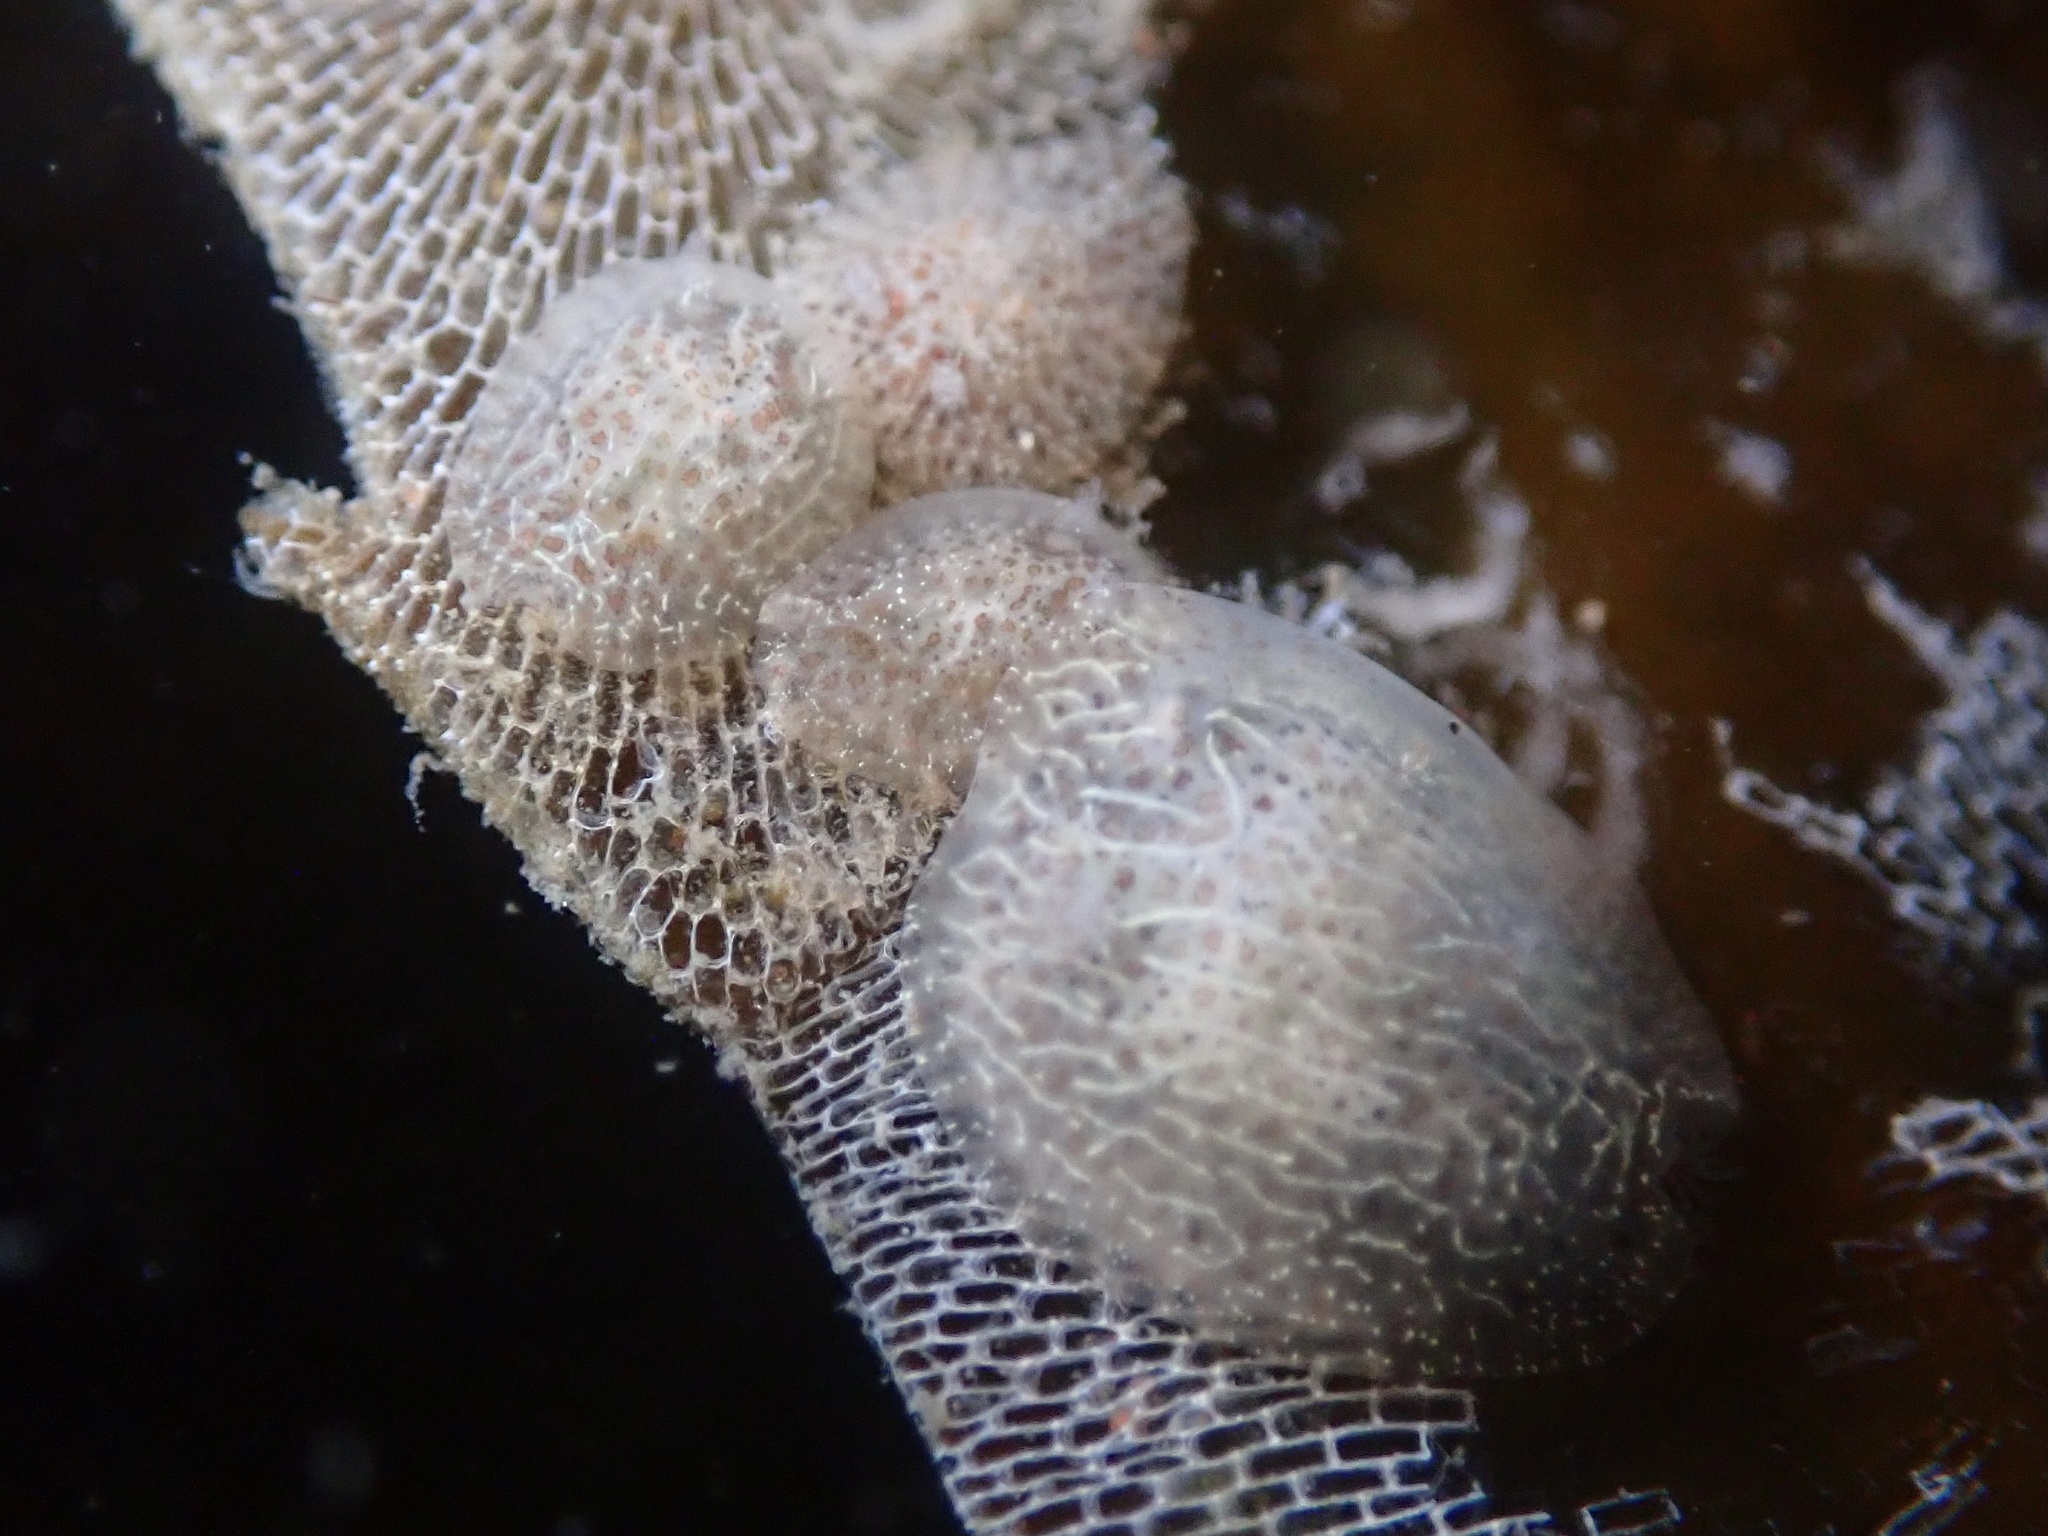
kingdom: Animalia
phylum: Mollusca
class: Gastropoda
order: Nudibranchia
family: Corambidae
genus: Corambe
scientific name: Corambe pacifica
